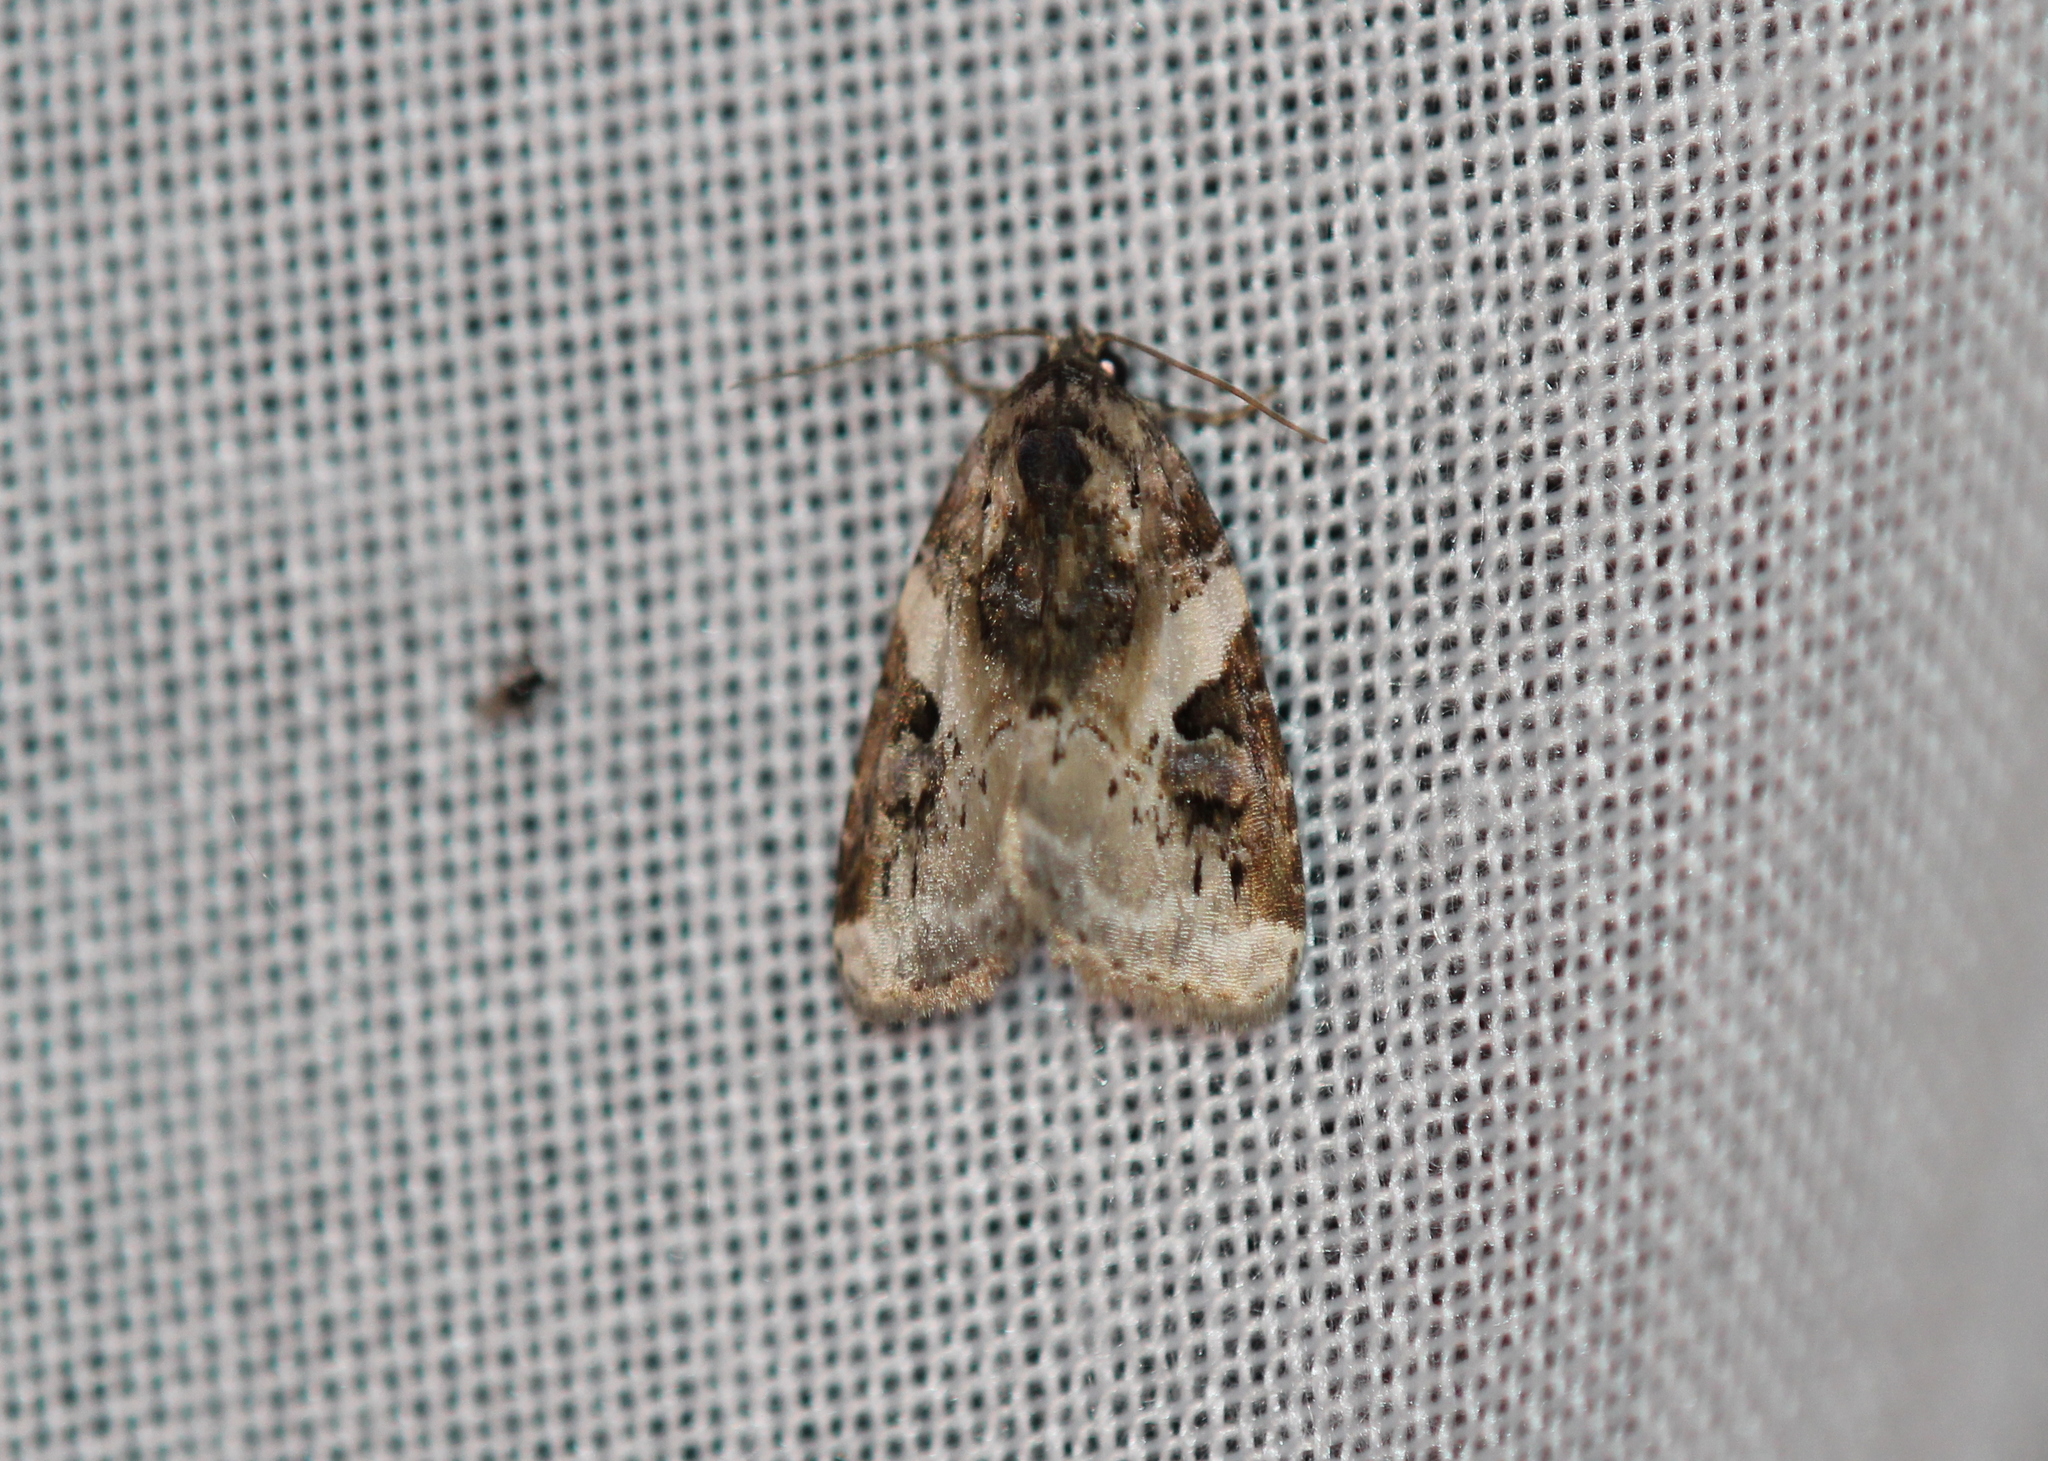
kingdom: Animalia
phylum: Arthropoda
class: Insecta
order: Lepidoptera
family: Noctuidae
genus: Pseudeustrotia
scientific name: Pseudeustrotia carneola
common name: Pink-barred lithacodia moth
